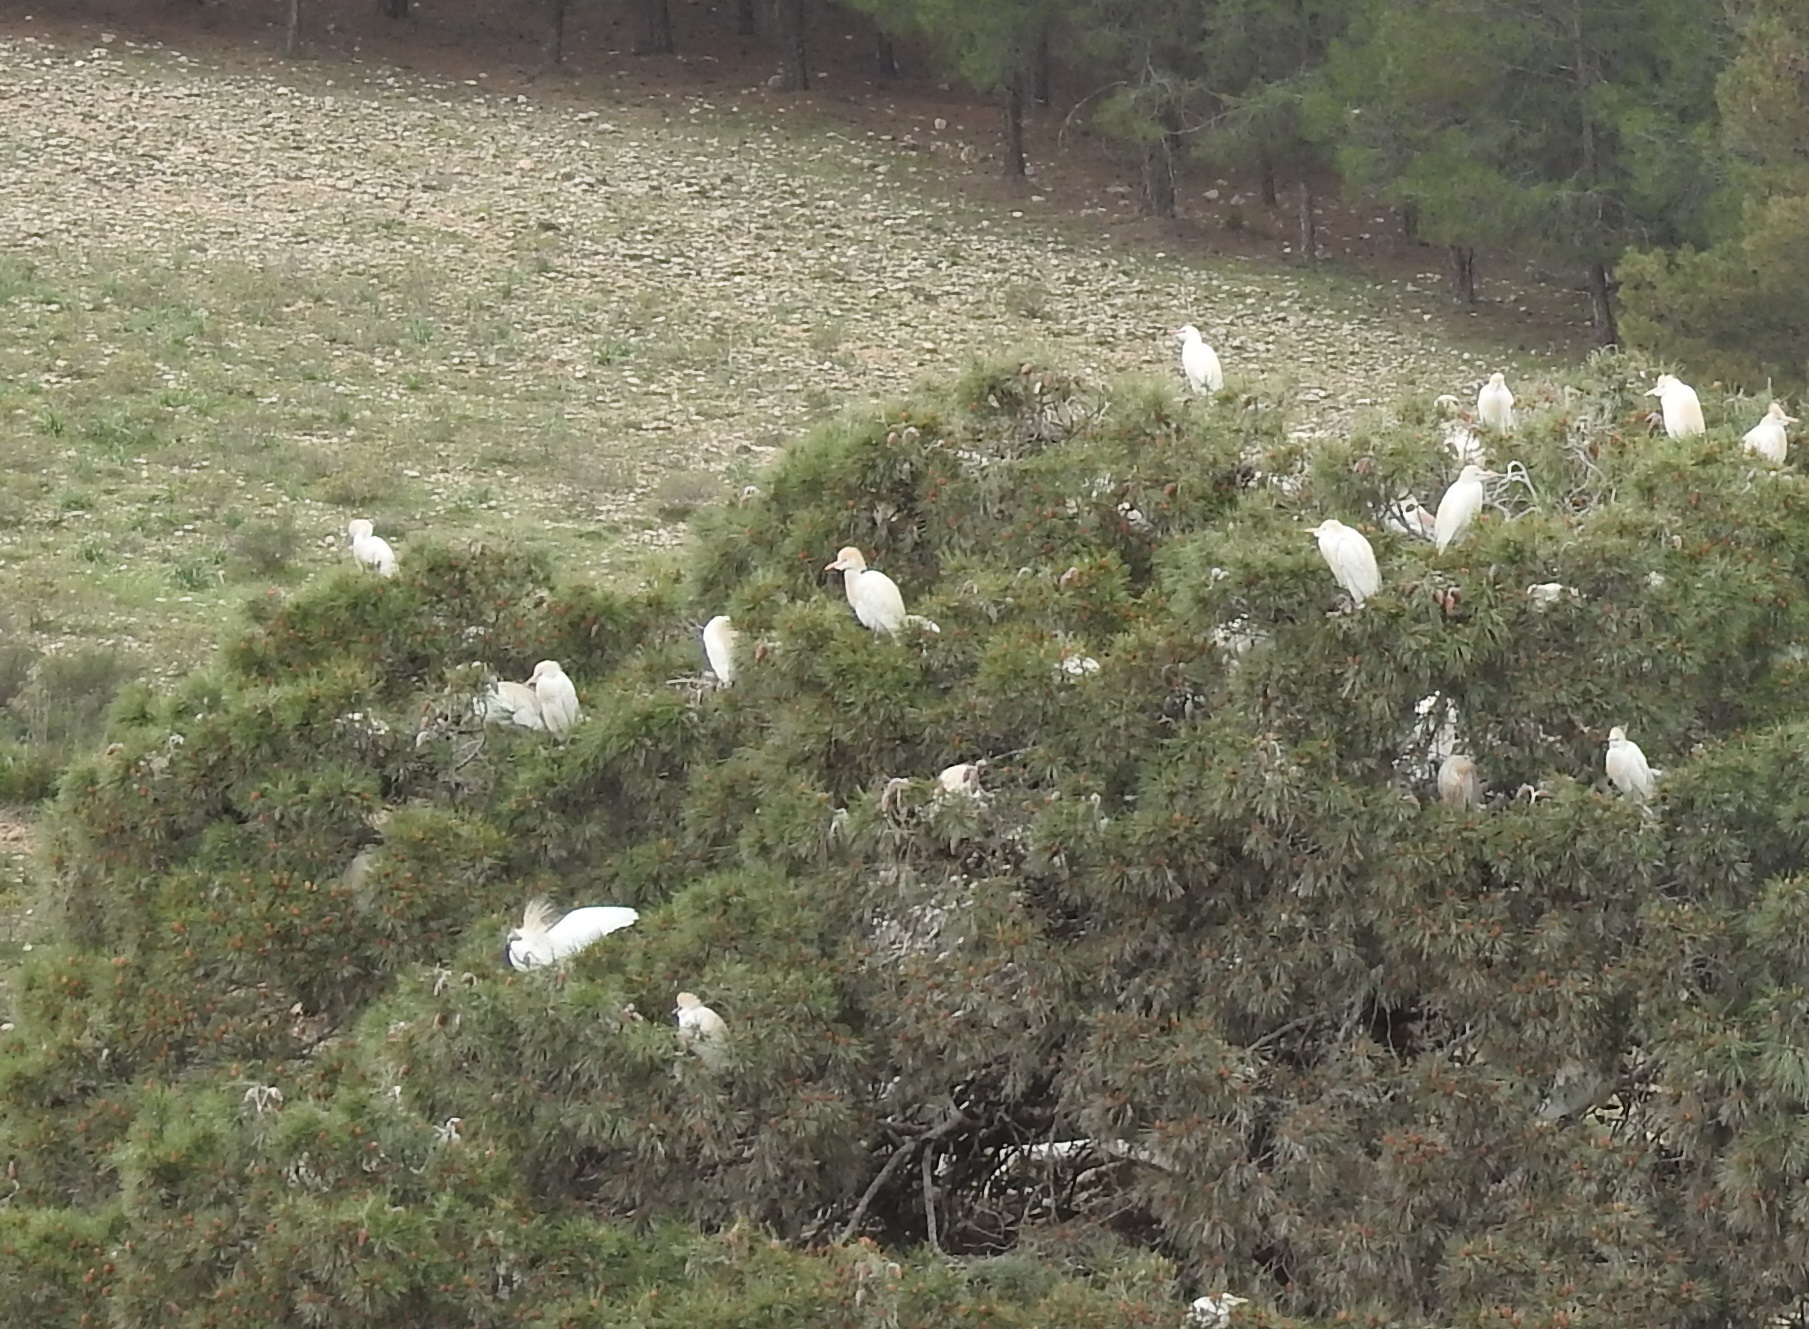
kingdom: Animalia
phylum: Chordata
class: Aves
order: Pelecaniformes
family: Ardeidae
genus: Bubulcus
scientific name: Bubulcus ibis
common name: Cattle egret
